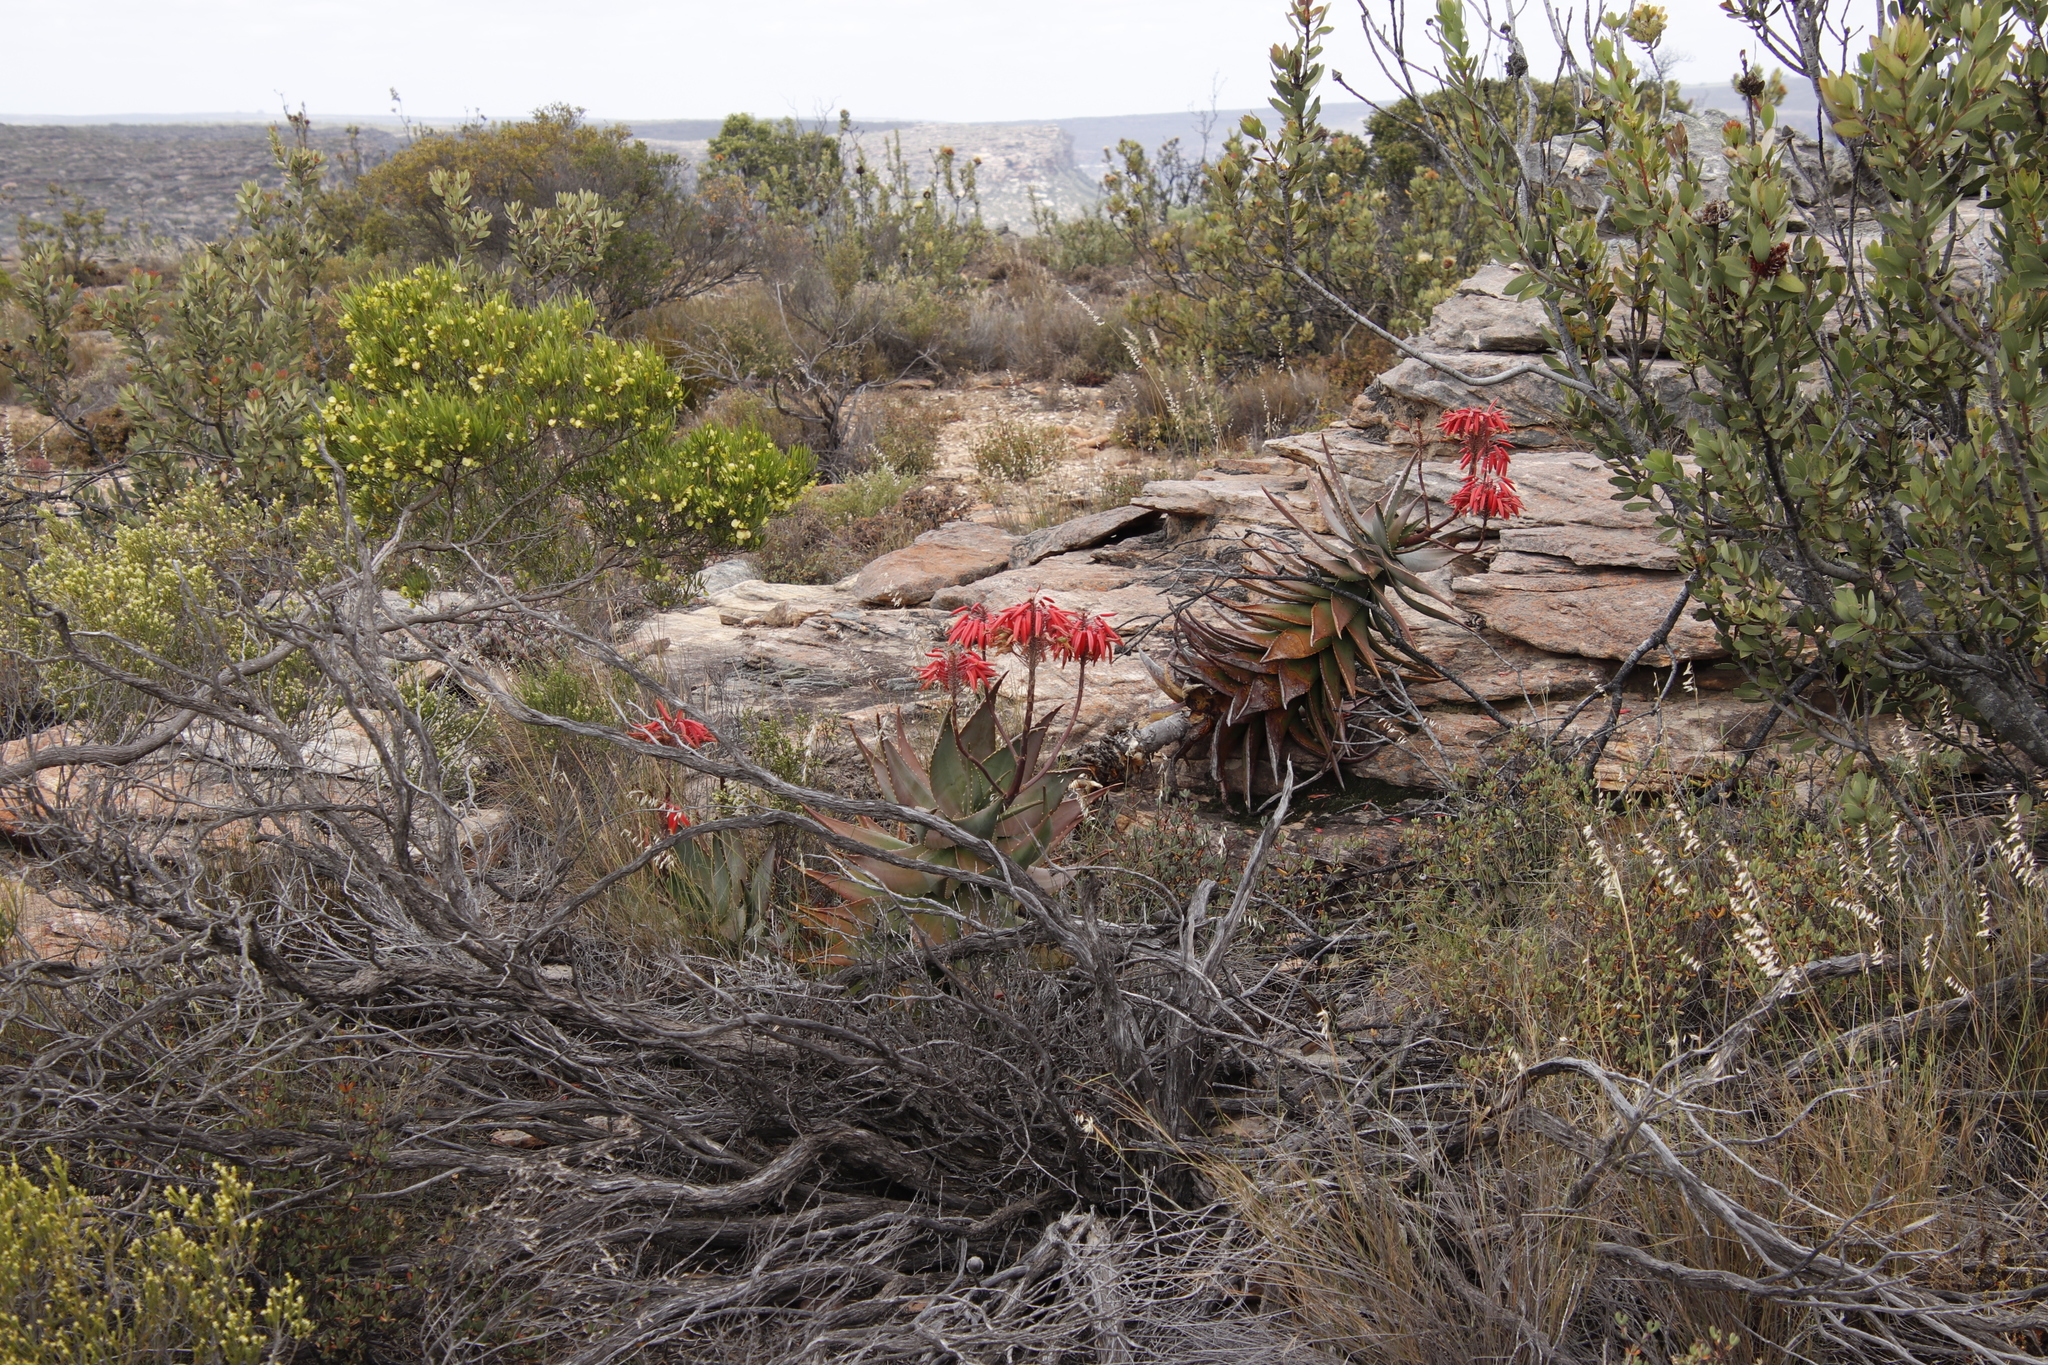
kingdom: Plantae
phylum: Tracheophyta
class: Liliopsida
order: Asparagales
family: Asphodelaceae
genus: Aloe
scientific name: Aloe perfoliata
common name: Mitra aloe
